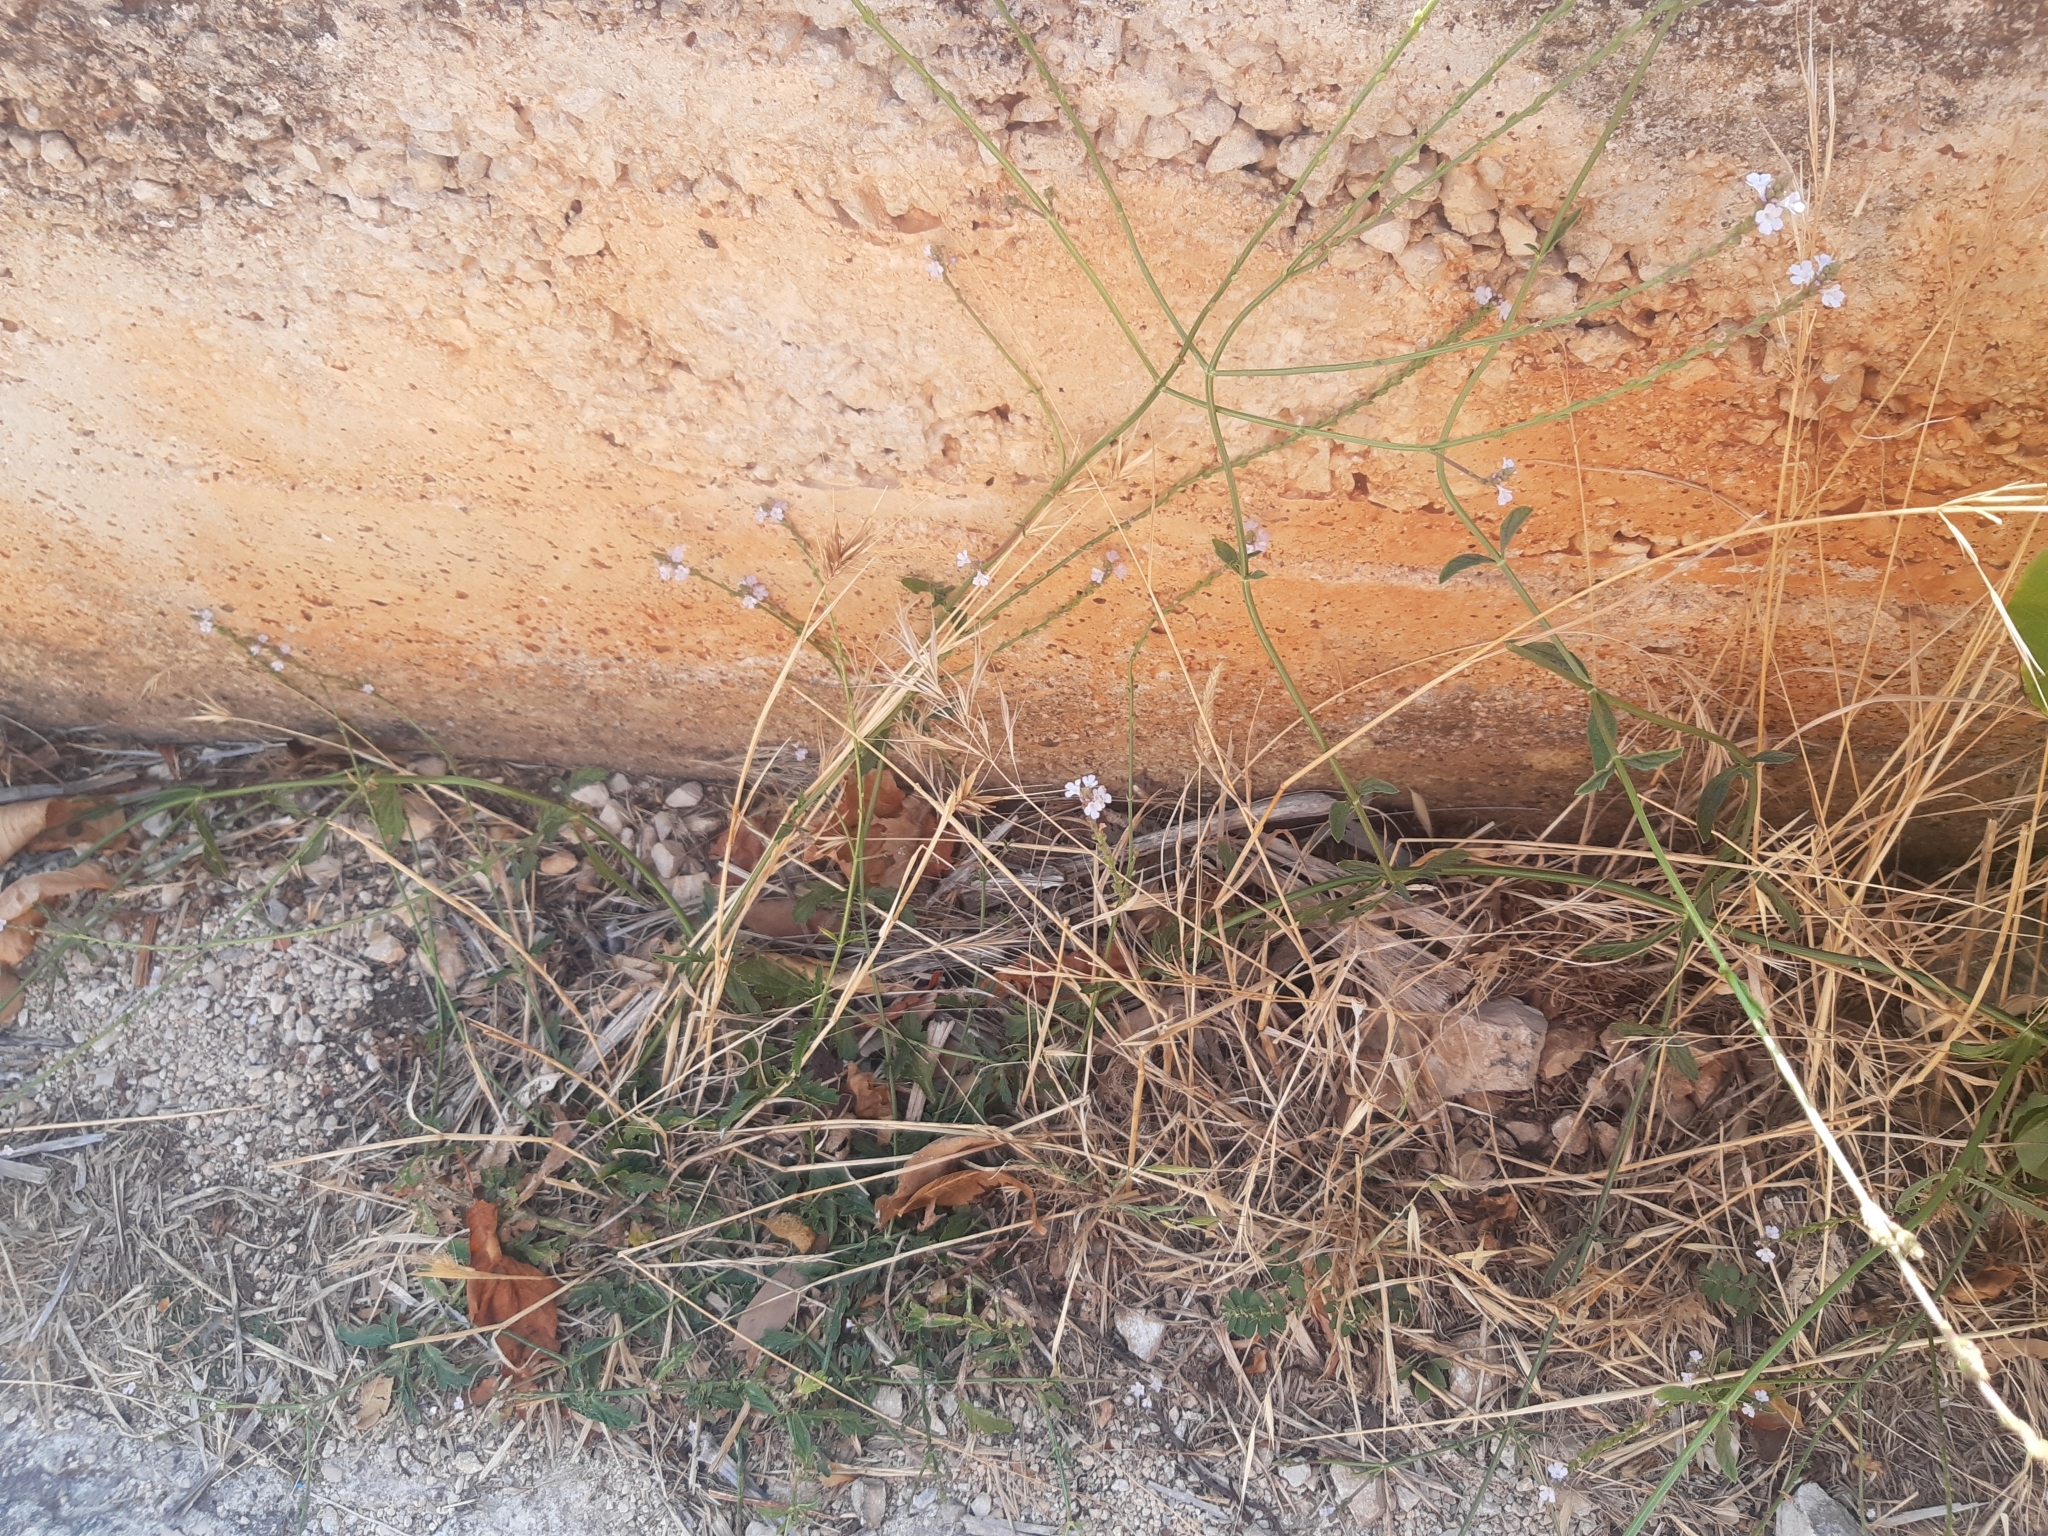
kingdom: Plantae
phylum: Tracheophyta
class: Magnoliopsida
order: Lamiales
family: Verbenaceae
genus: Verbena
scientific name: Verbena officinalis
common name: Vervain
